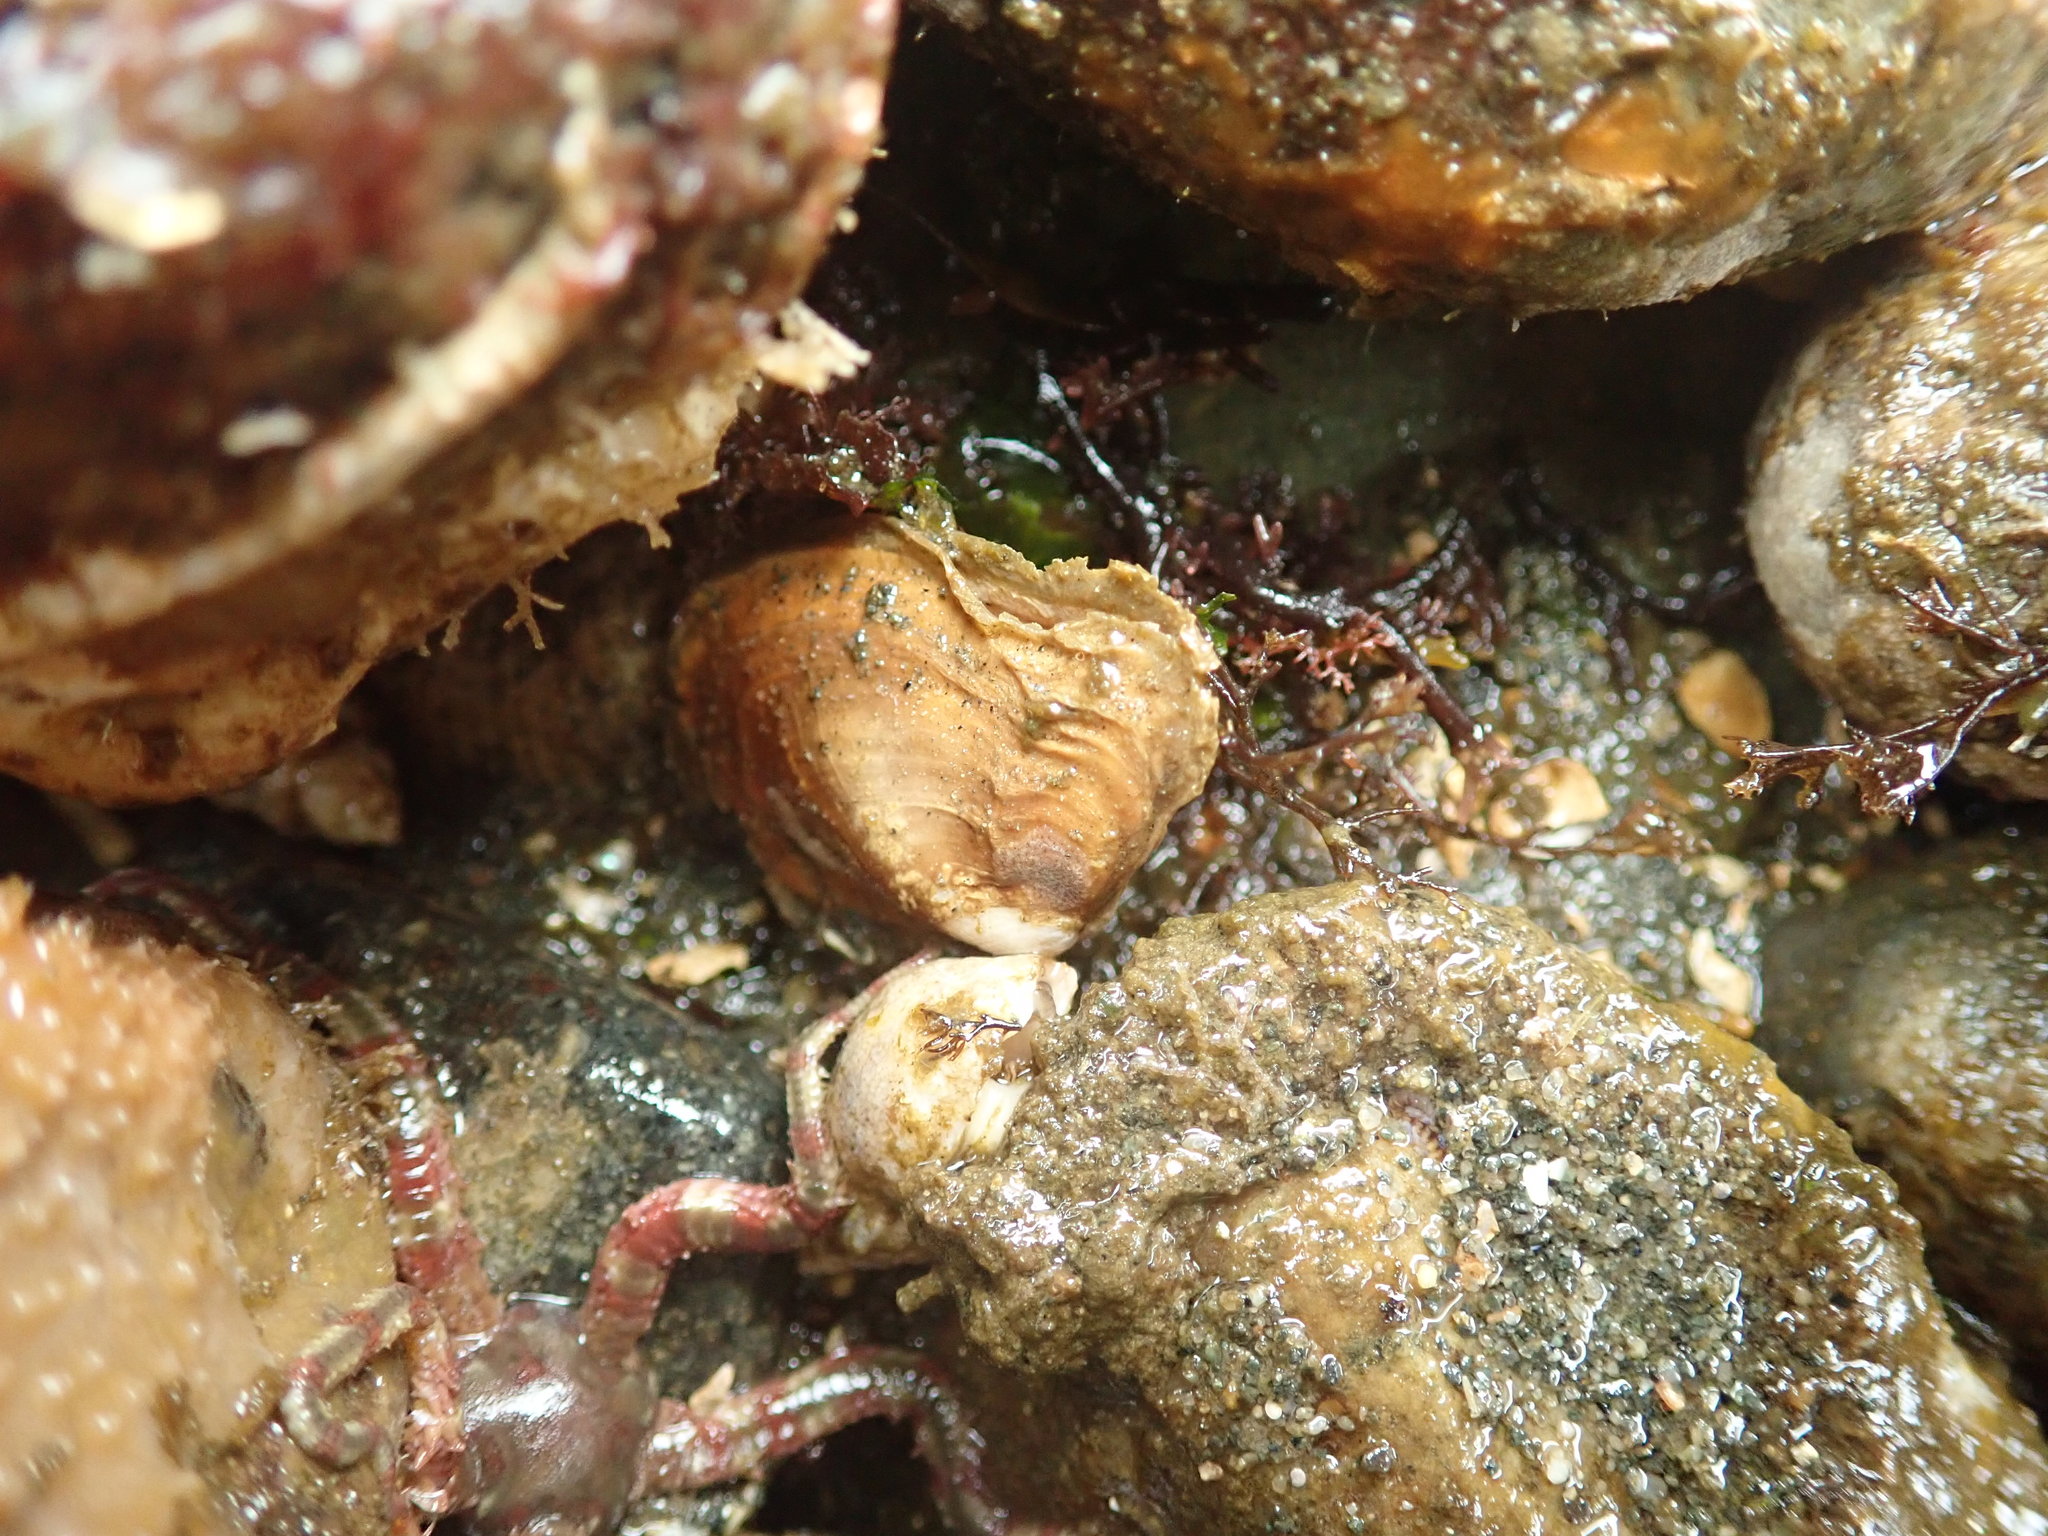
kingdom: Animalia
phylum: Mollusca
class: Bivalvia
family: Lyonsiidae
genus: Entodesma
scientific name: Entodesma navicula
